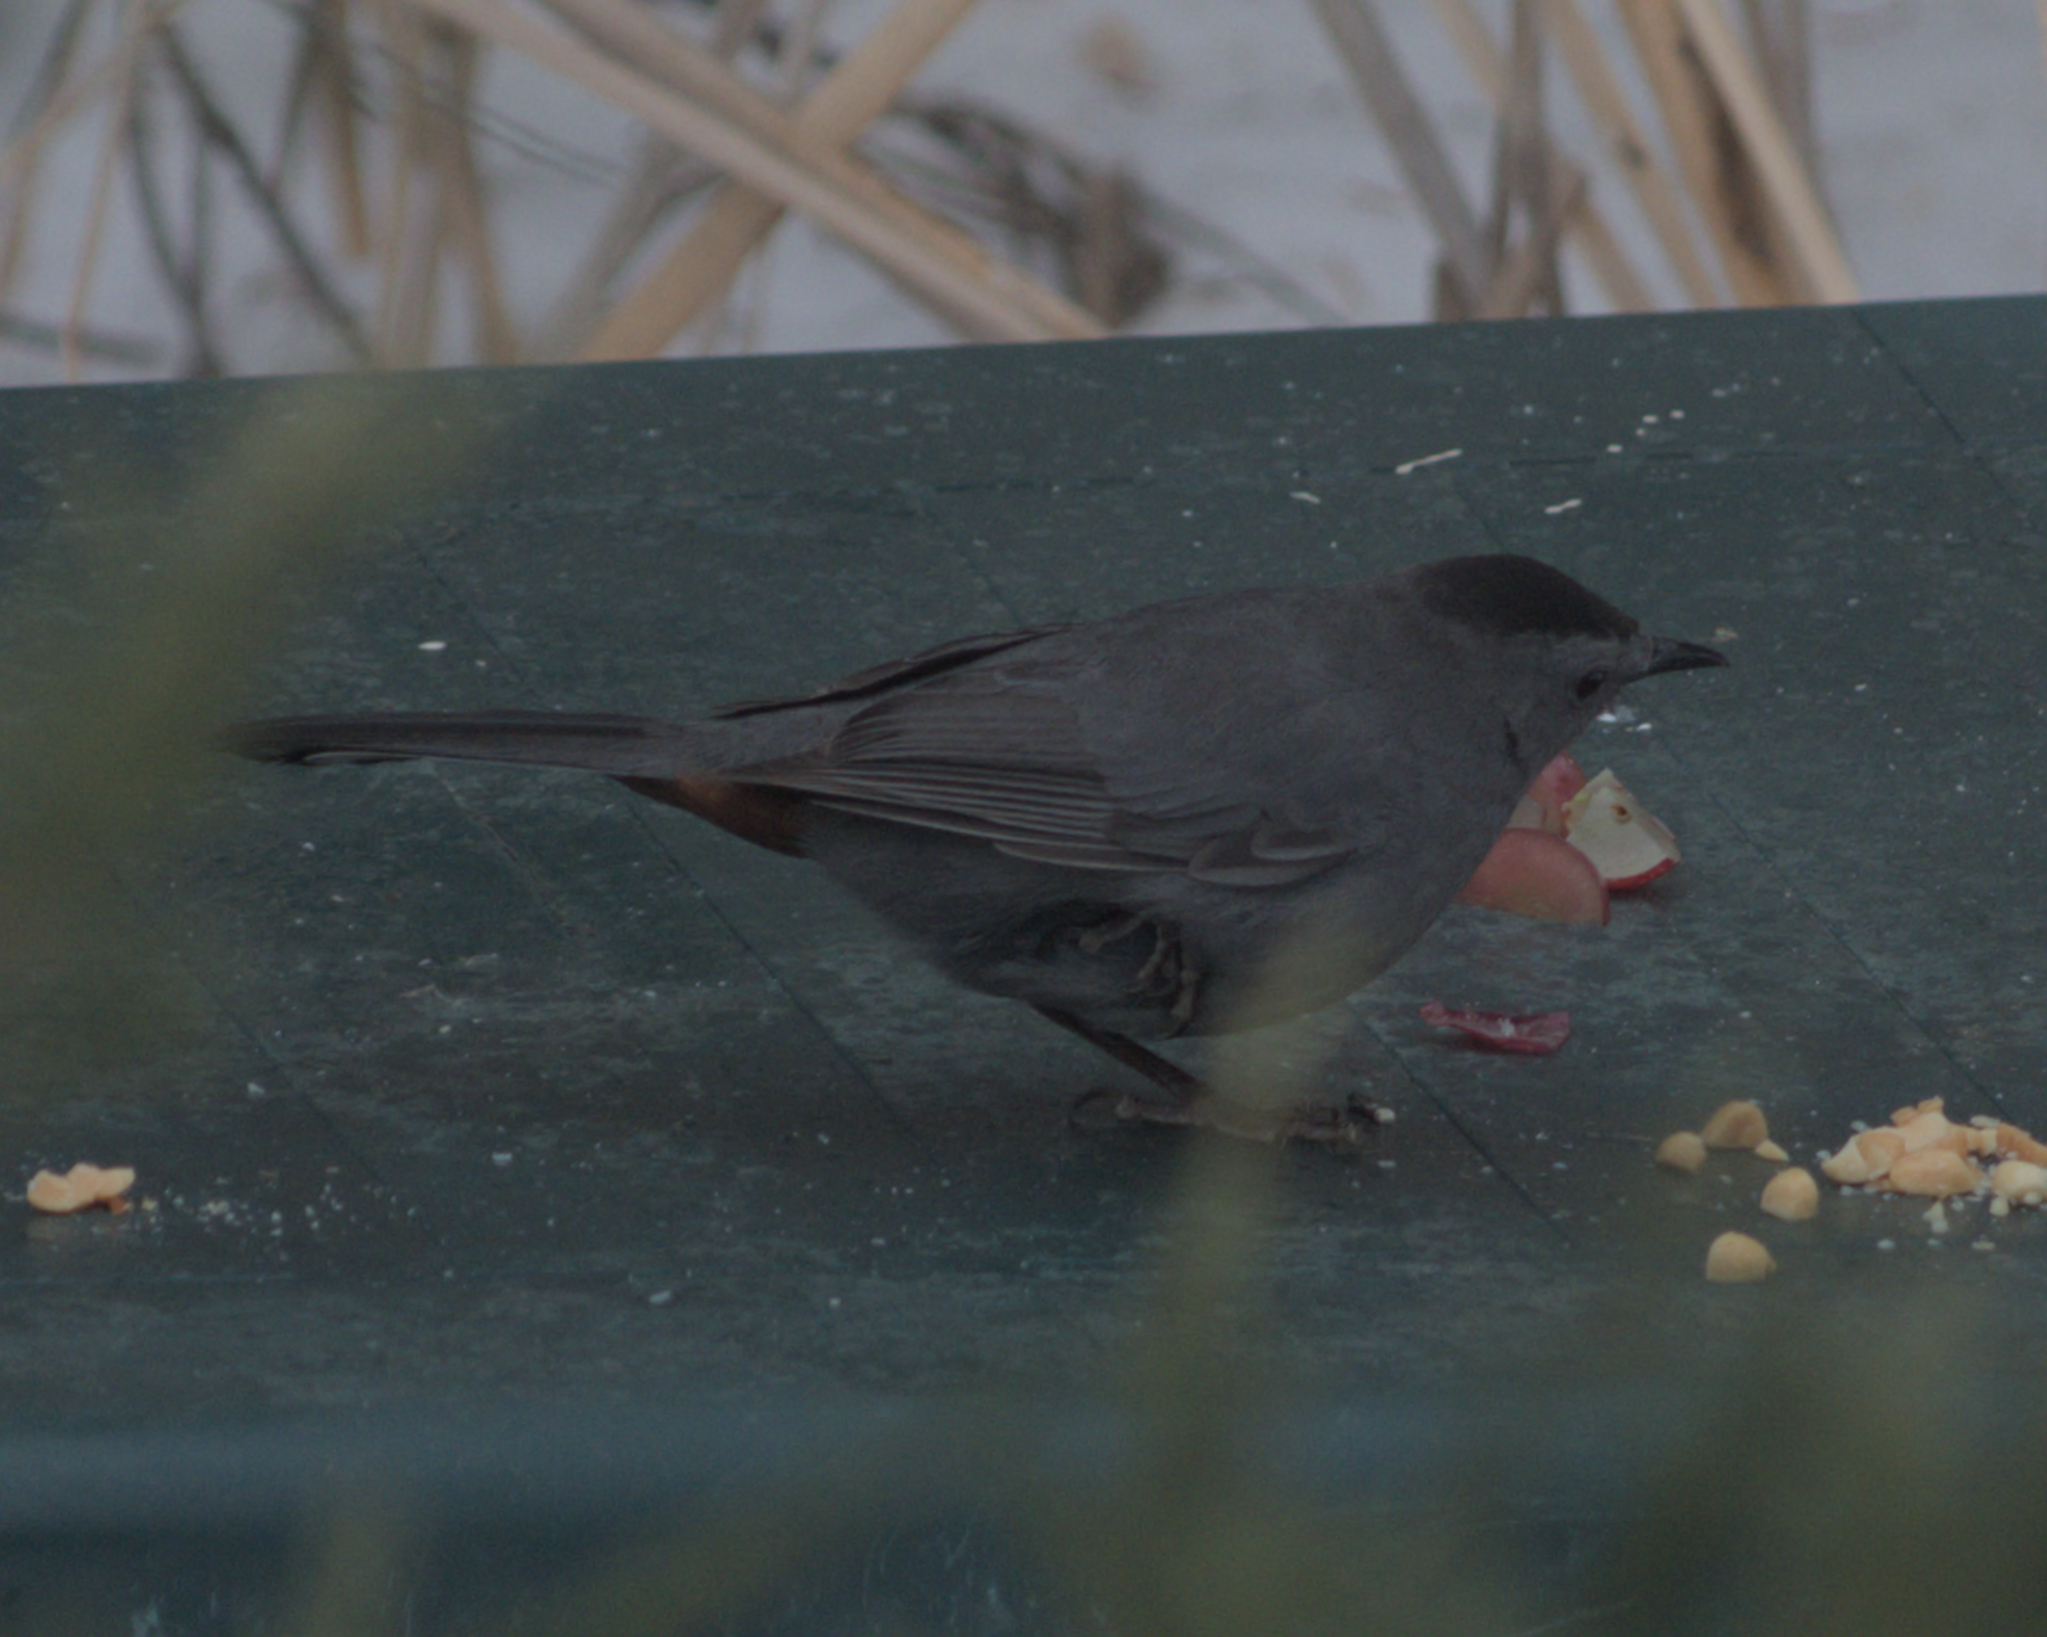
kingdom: Animalia
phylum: Chordata
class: Aves
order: Passeriformes
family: Mimidae
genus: Dumetella
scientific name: Dumetella carolinensis
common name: Gray catbird
